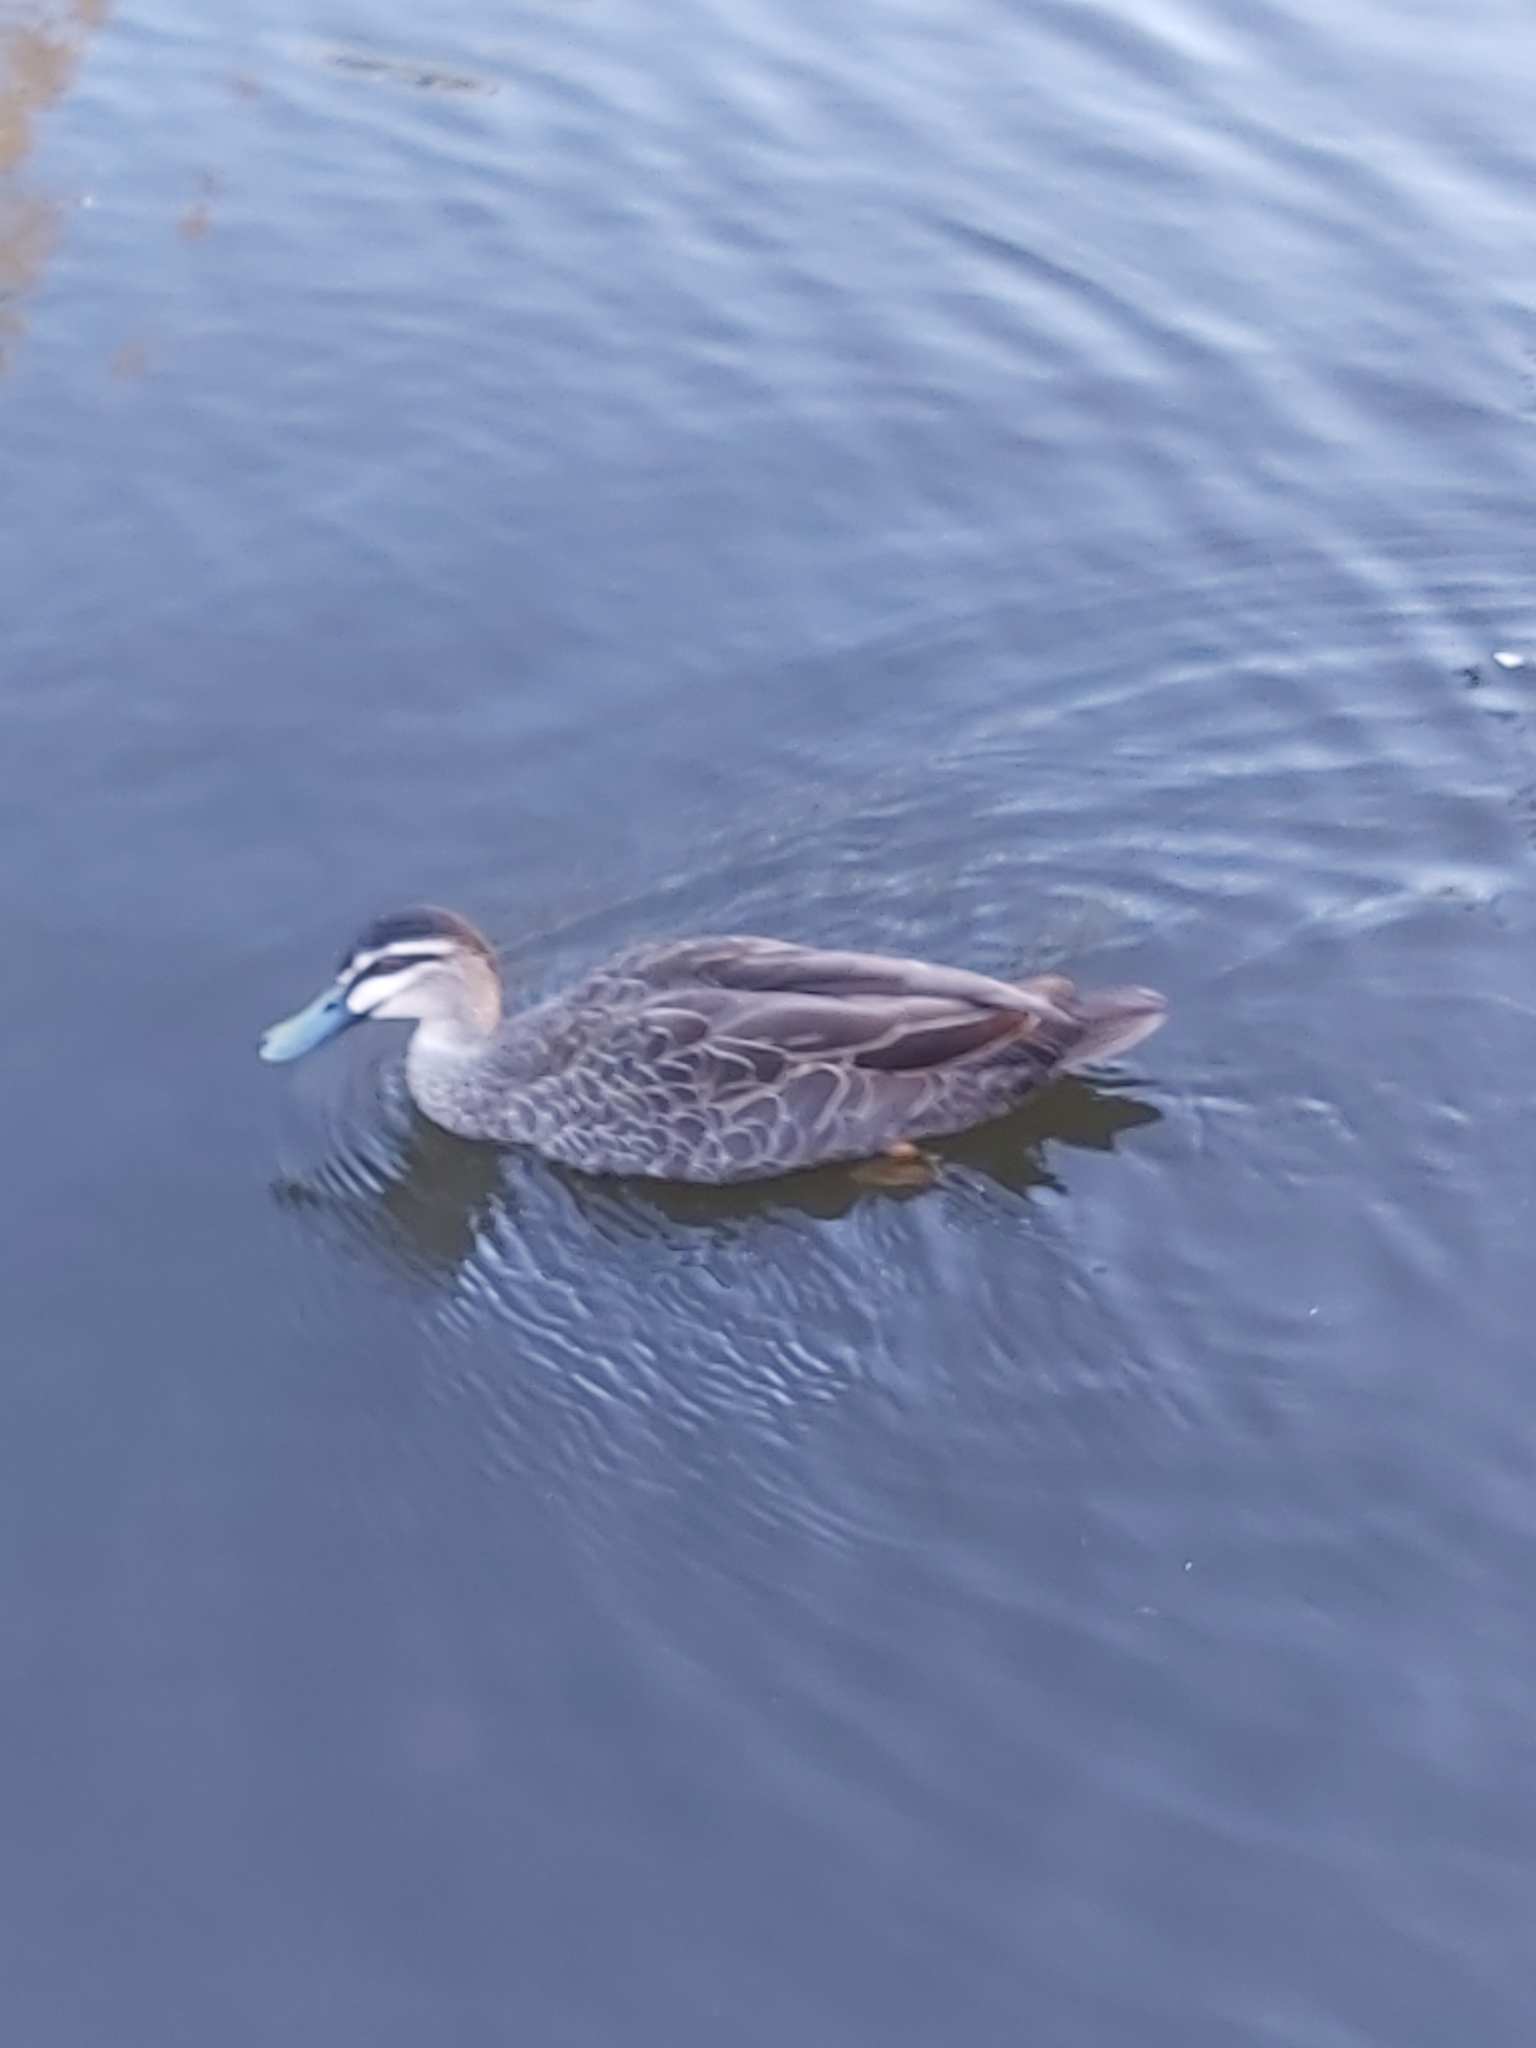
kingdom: Animalia
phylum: Chordata
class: Aves
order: Anseriformes
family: Anatidae
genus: Anas
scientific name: Anas superciliosa
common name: Pacific black duck
